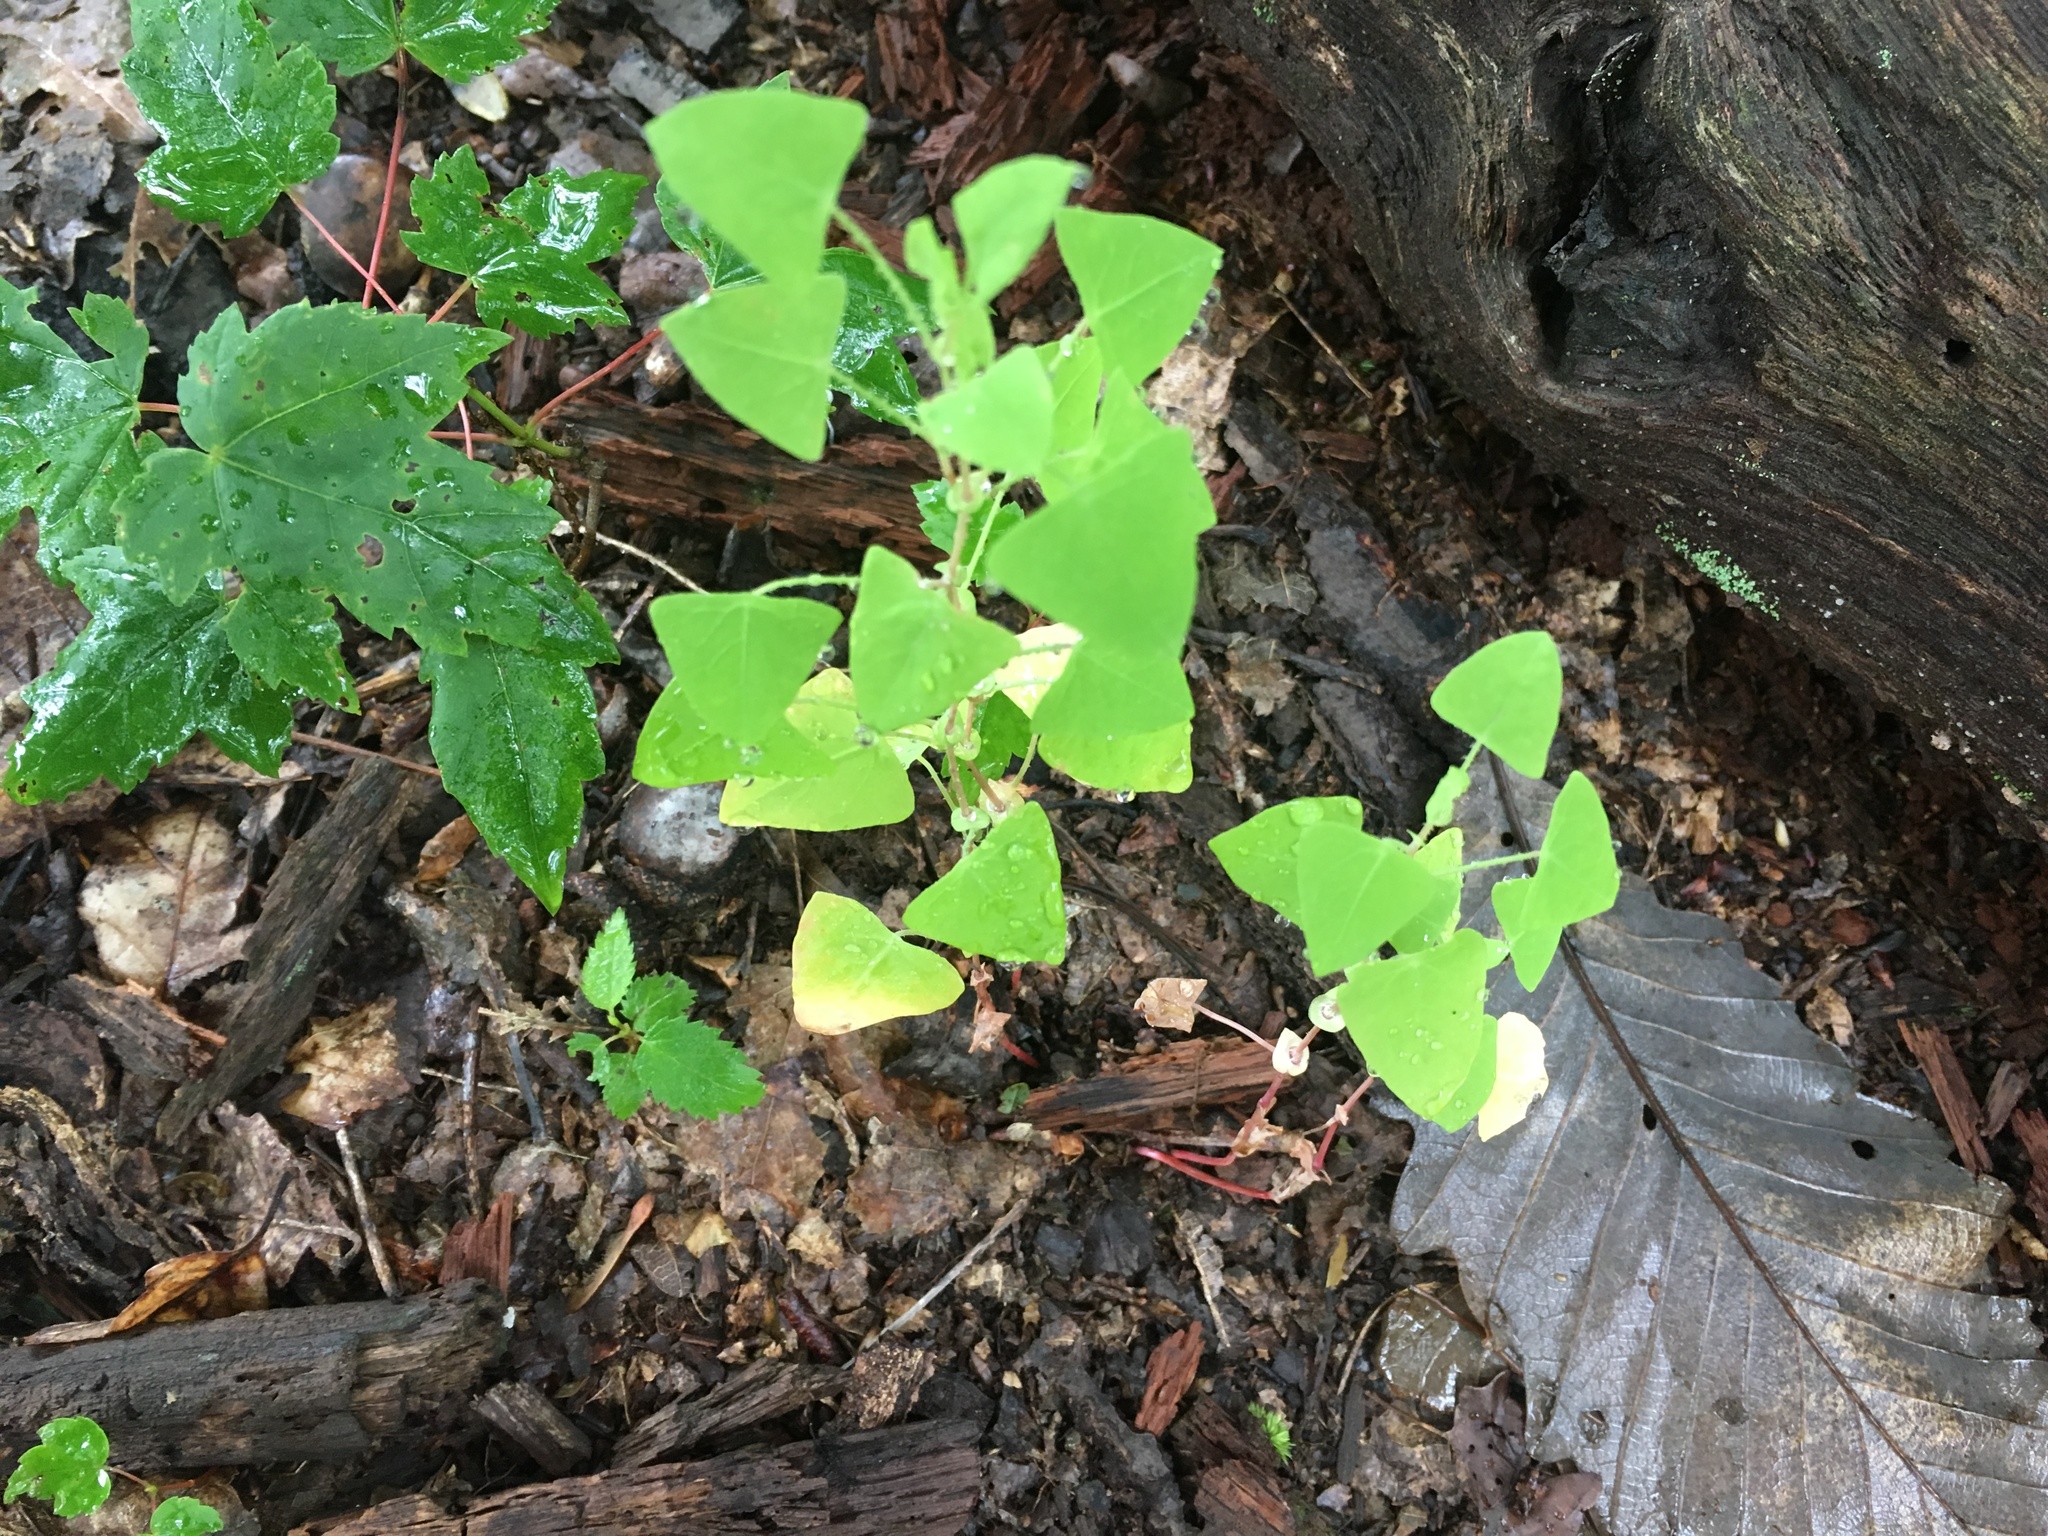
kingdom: Plantae
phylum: Tracheophyta
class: Magnoliopsida
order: Caryophyllales
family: Polygonaceae
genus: Persicaria
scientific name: Persicaria perfoliata
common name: Asiatic tearthumb
